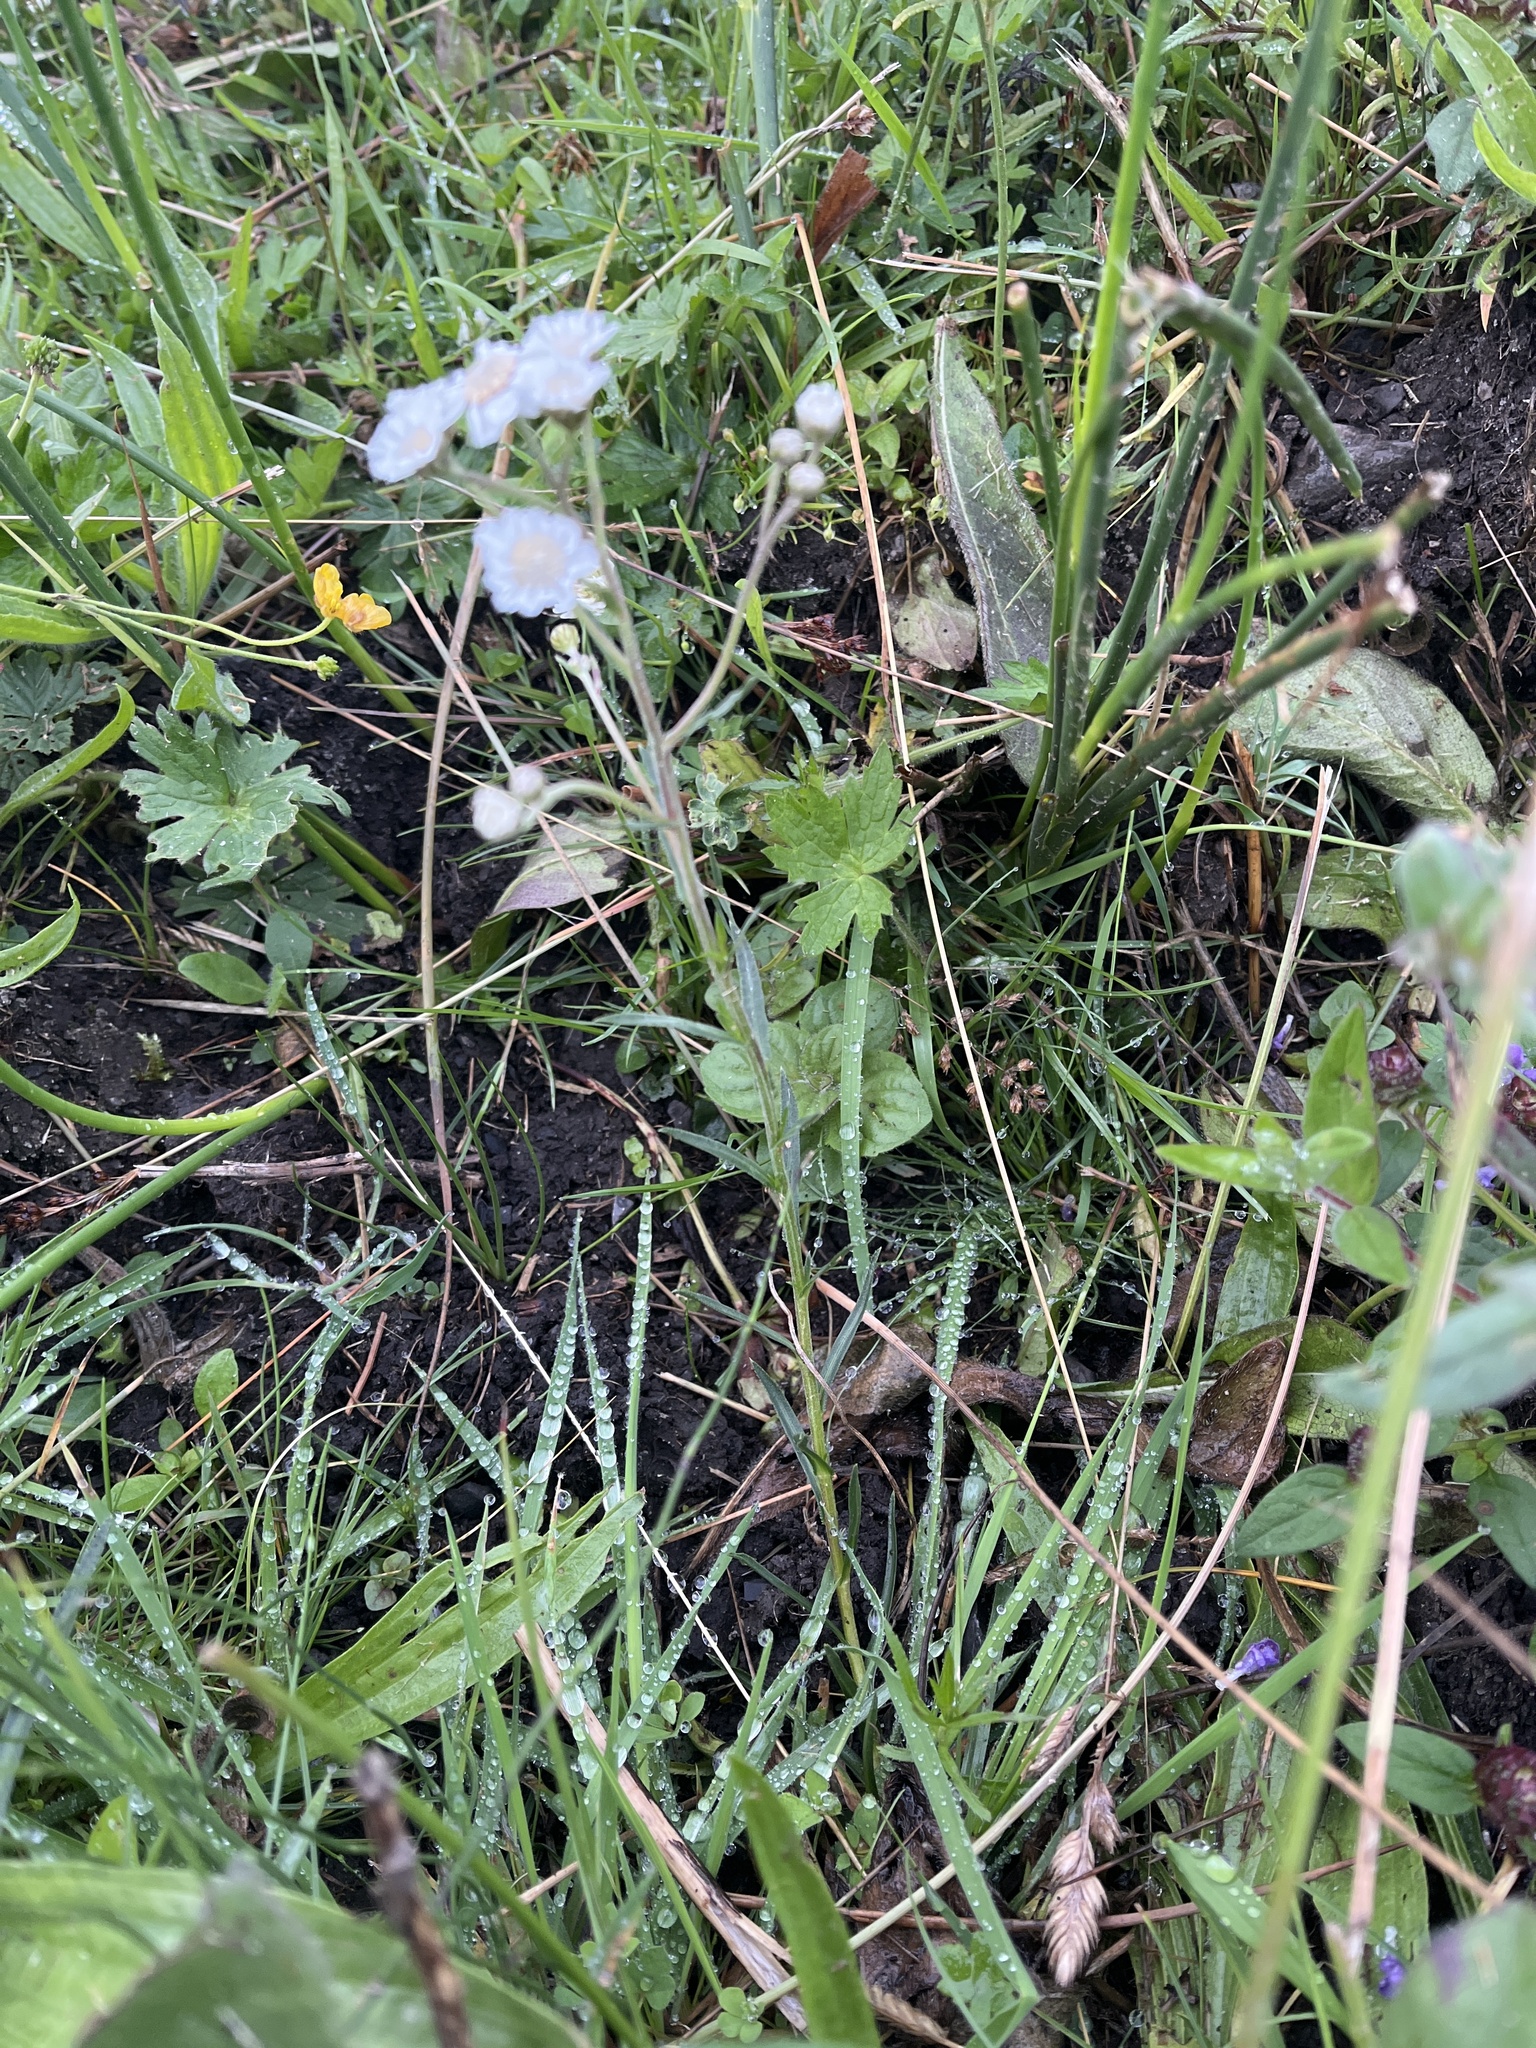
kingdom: Plantae
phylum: Tracheophyta
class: Magnoliopsida
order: Asterales
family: Asteraceae
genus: Achillea
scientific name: Achillea ptarmica
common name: Sneezeweed
